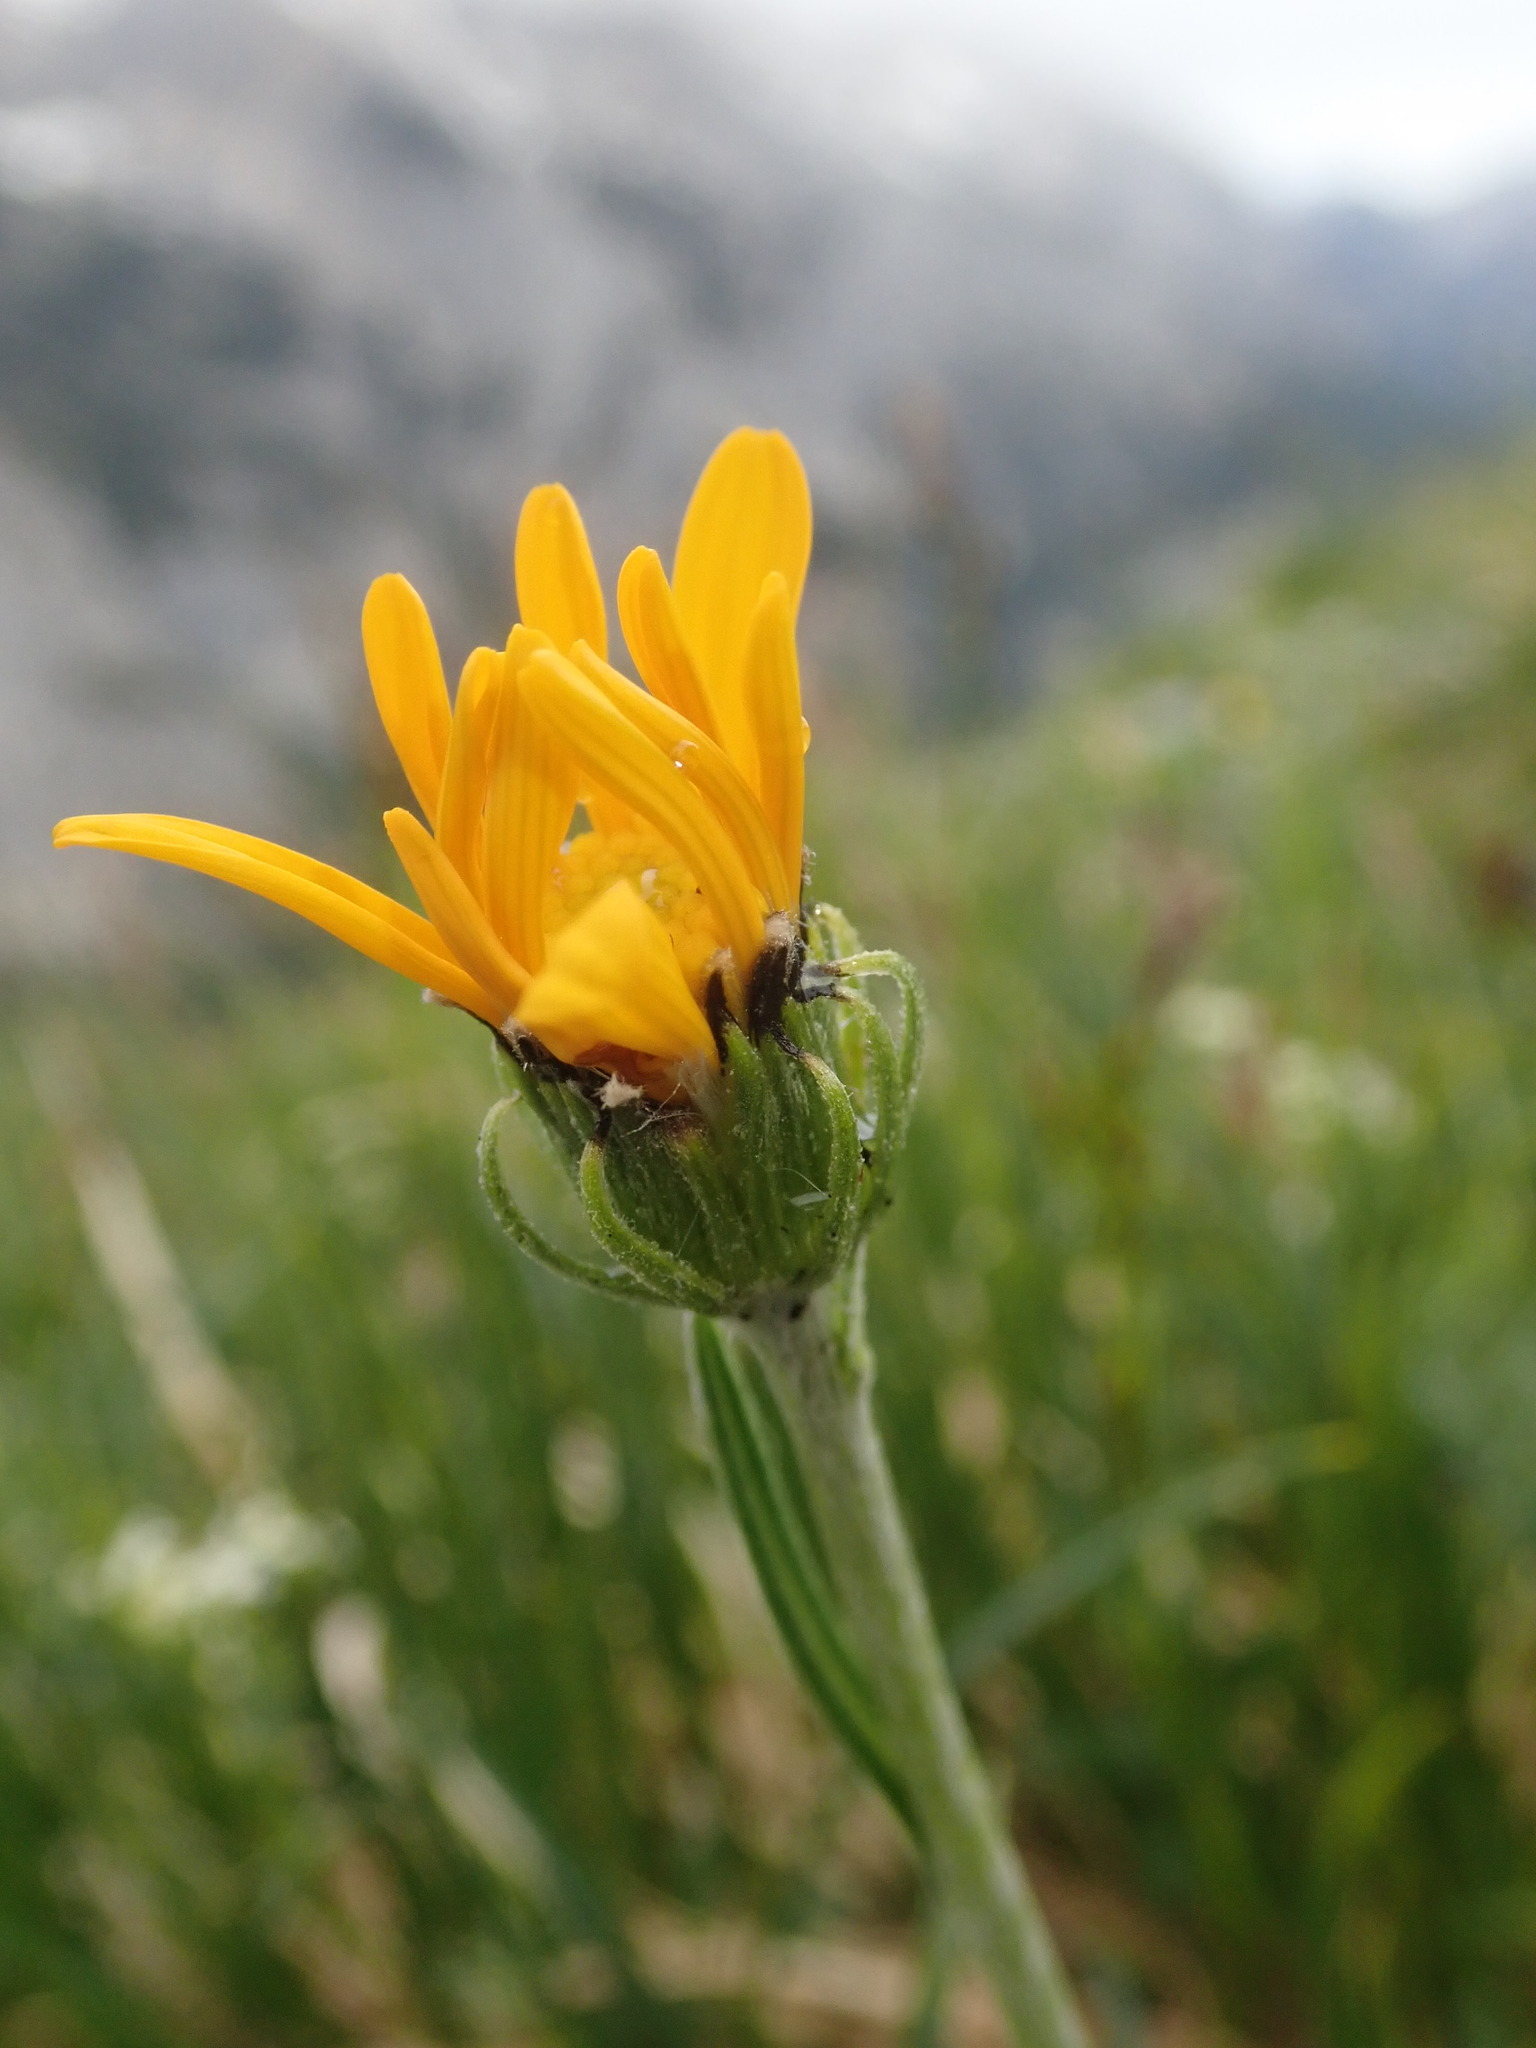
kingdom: Plantae
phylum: Tracheophyta
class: Magnoliopsida
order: Asterales
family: Asteraceae
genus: Senecio
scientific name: Senecio doronicum
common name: Chamois ragwort
